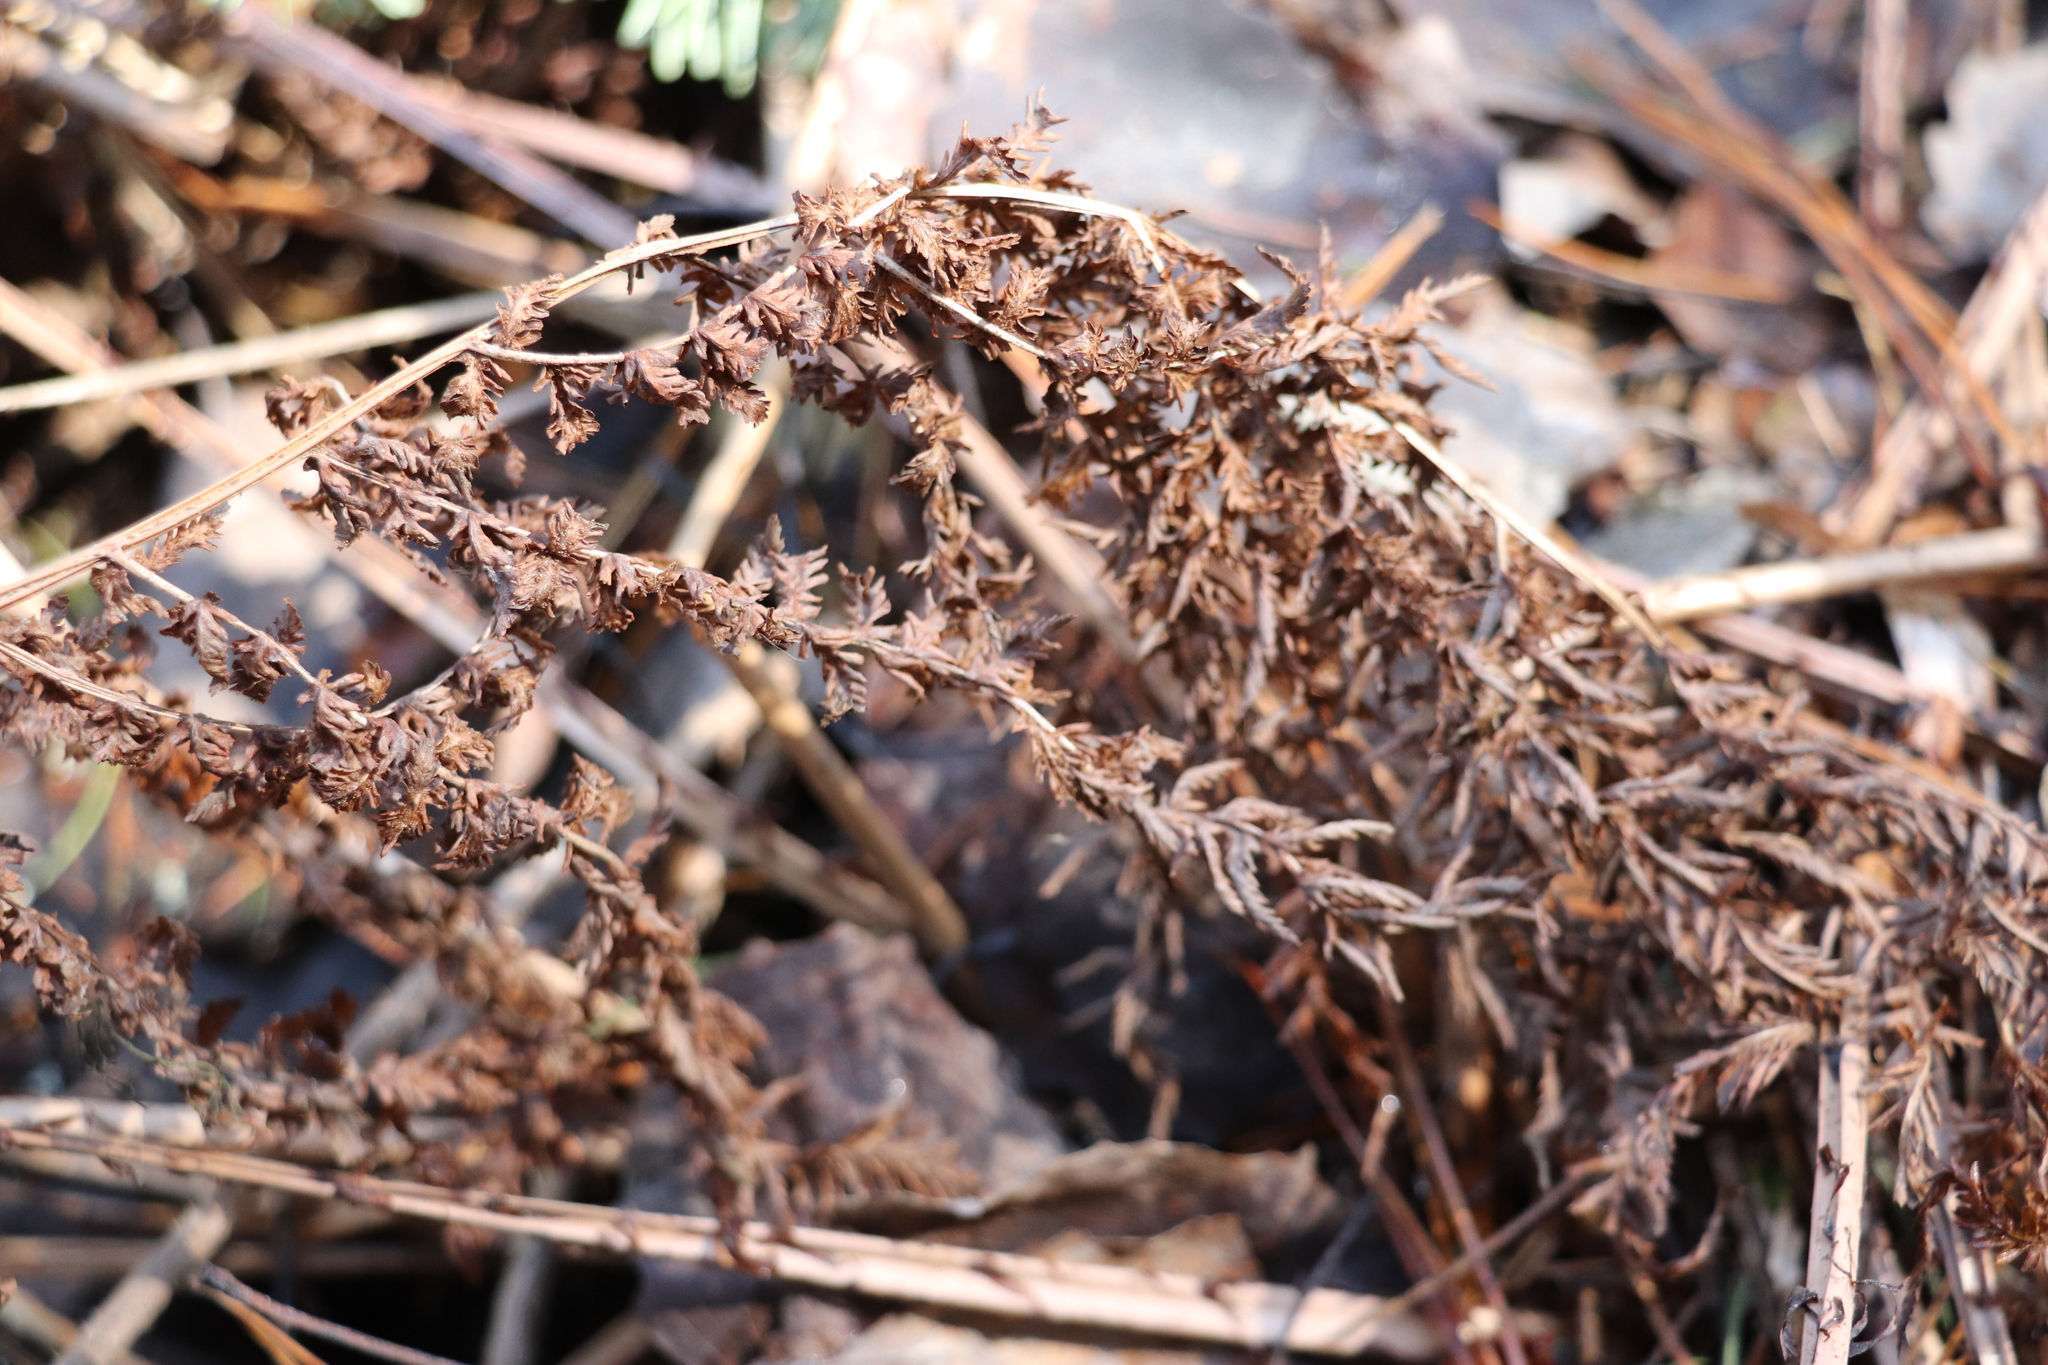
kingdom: Plantae
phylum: Tracheophyta
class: Polypodiopsida
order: Polypodiales
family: Athyriaceae
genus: Athyrium
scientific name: Athyrium filix-femina
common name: Lady fern
